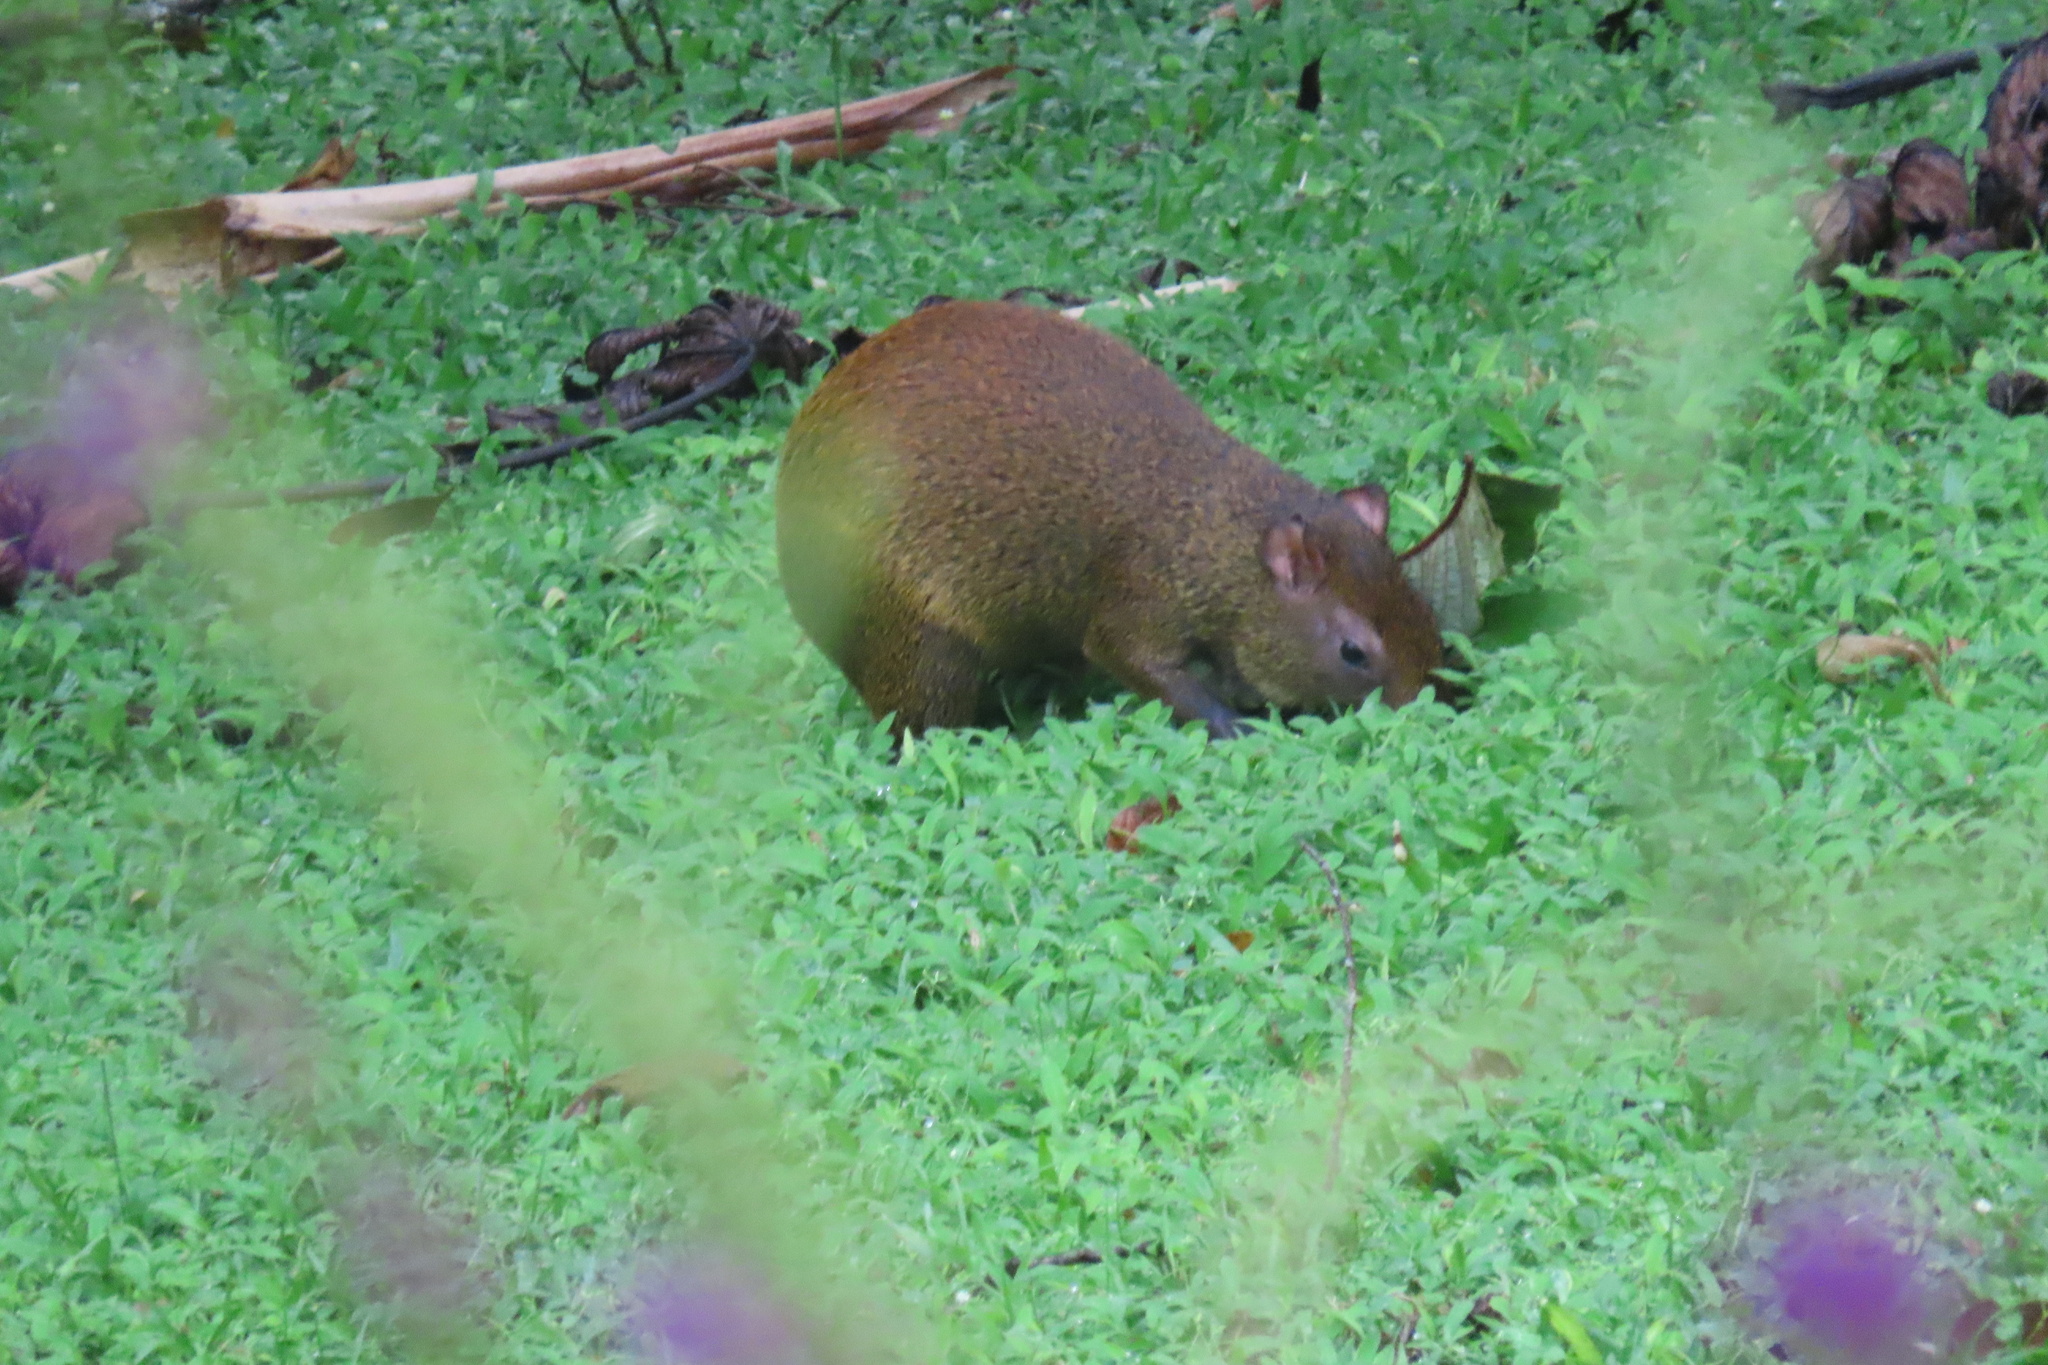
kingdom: Animalia
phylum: Chordata
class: Mammalia
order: Rodentia
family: Dasyproctidae
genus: Dasyprocta
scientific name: Dasyprocta punctata
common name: Central american agouti
